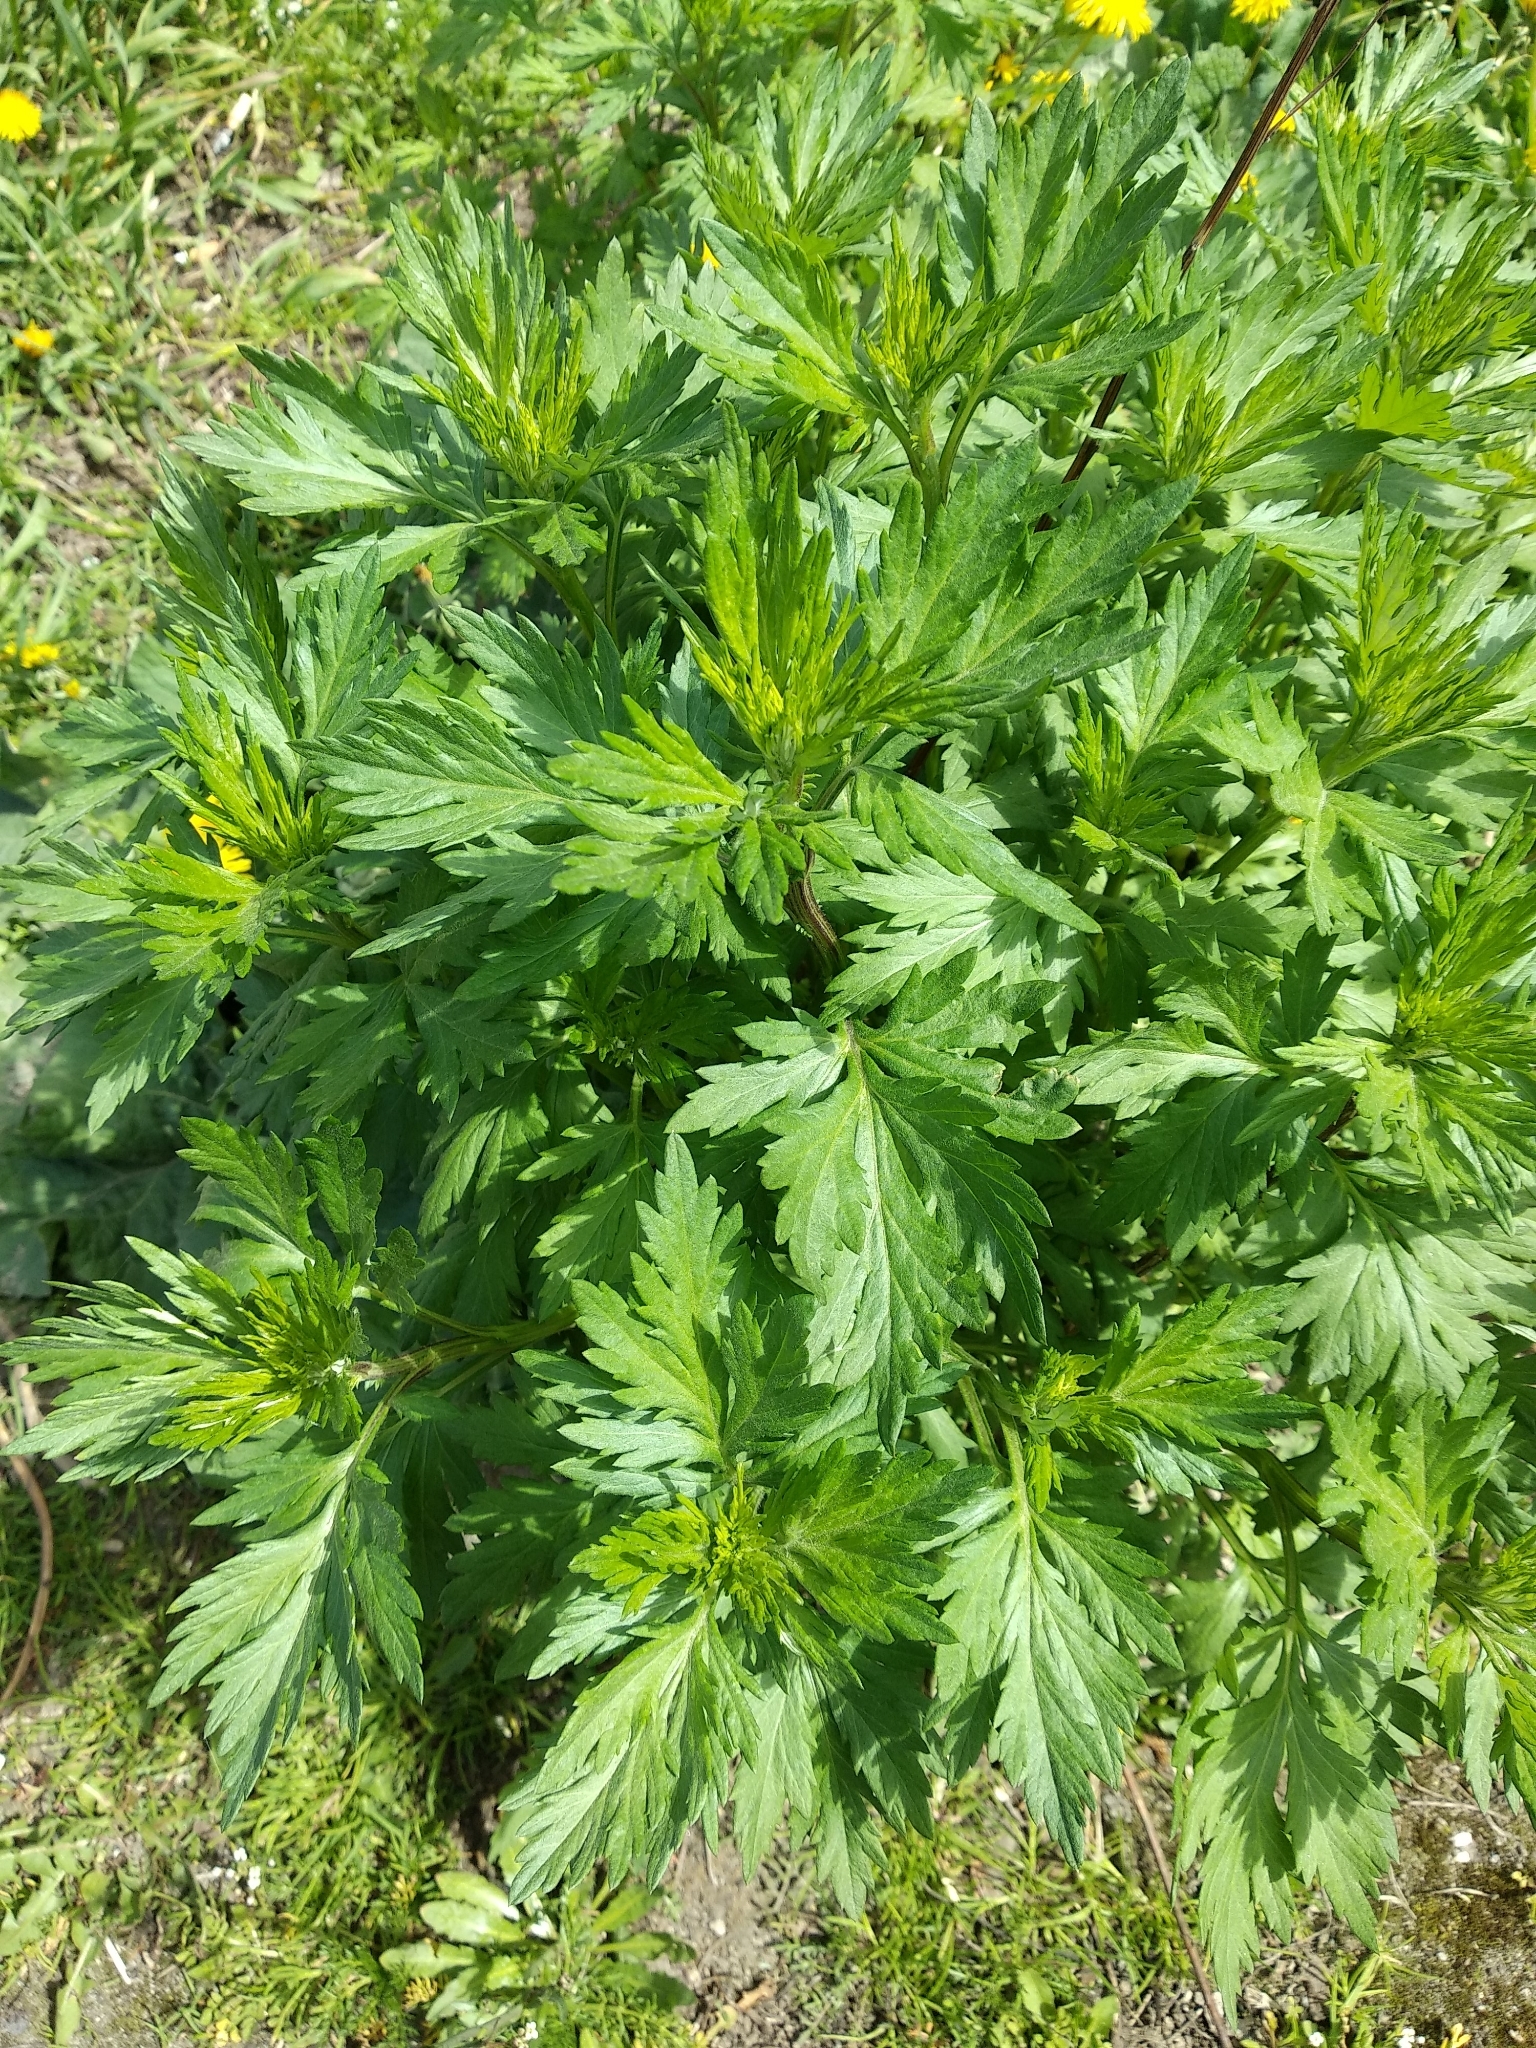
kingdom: Plantae
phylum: Tracheophyta
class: Magnoliopsida
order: Asterales
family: Asteraceae
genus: Artemisia
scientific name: Artemisia vulgaris
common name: Mugwort
